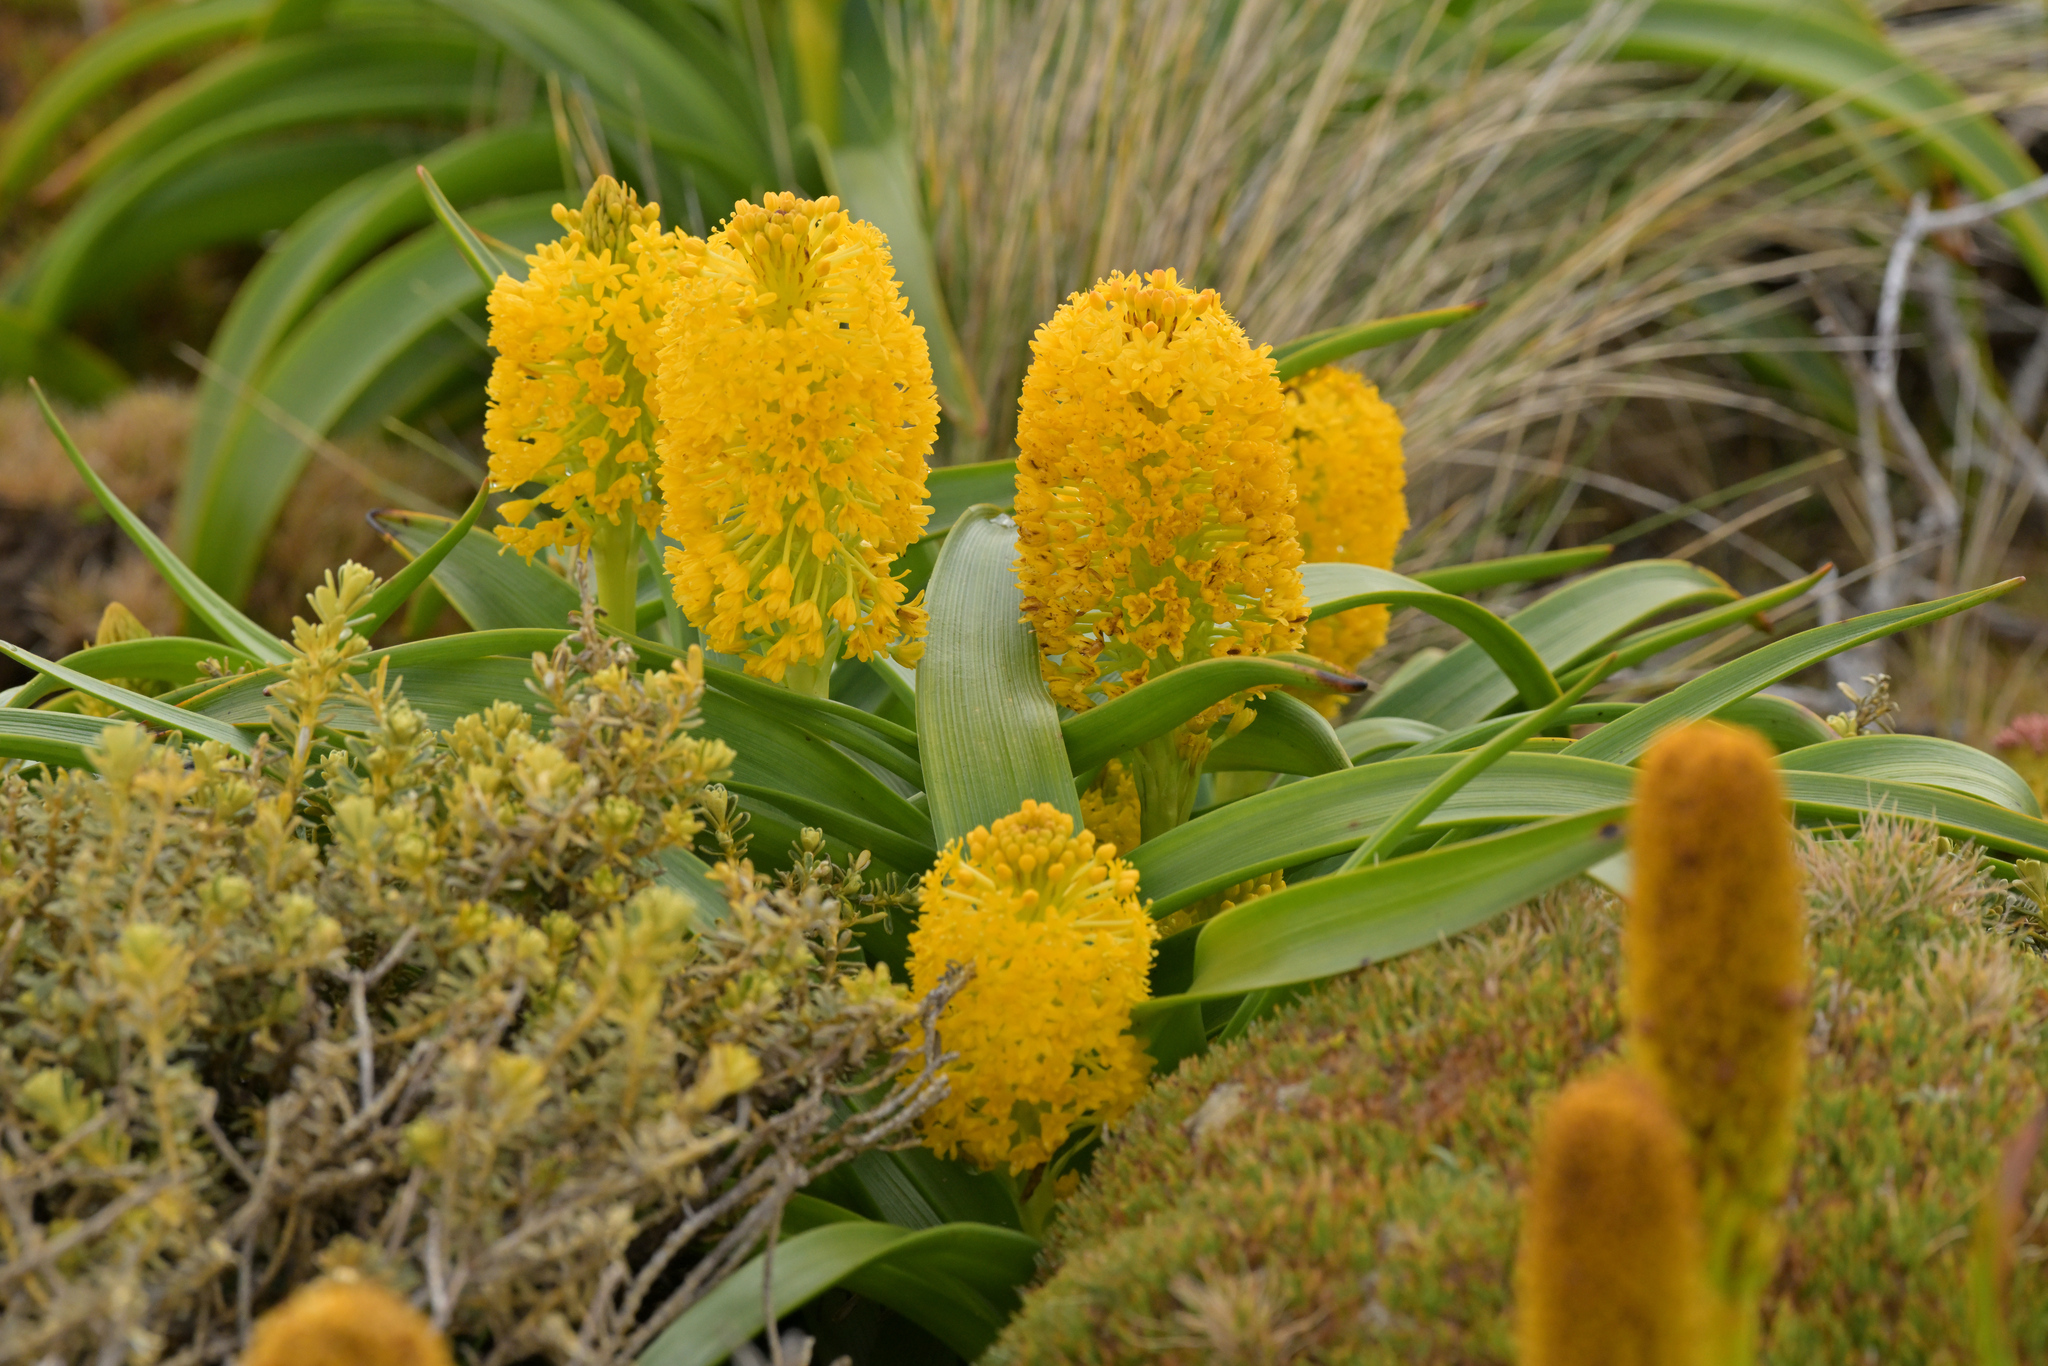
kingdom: Plantae
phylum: Tracheophyta
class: Liliopsida
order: Asparagales
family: Asphodelaceae
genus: Bulbinella
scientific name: Bulbinella rossii
